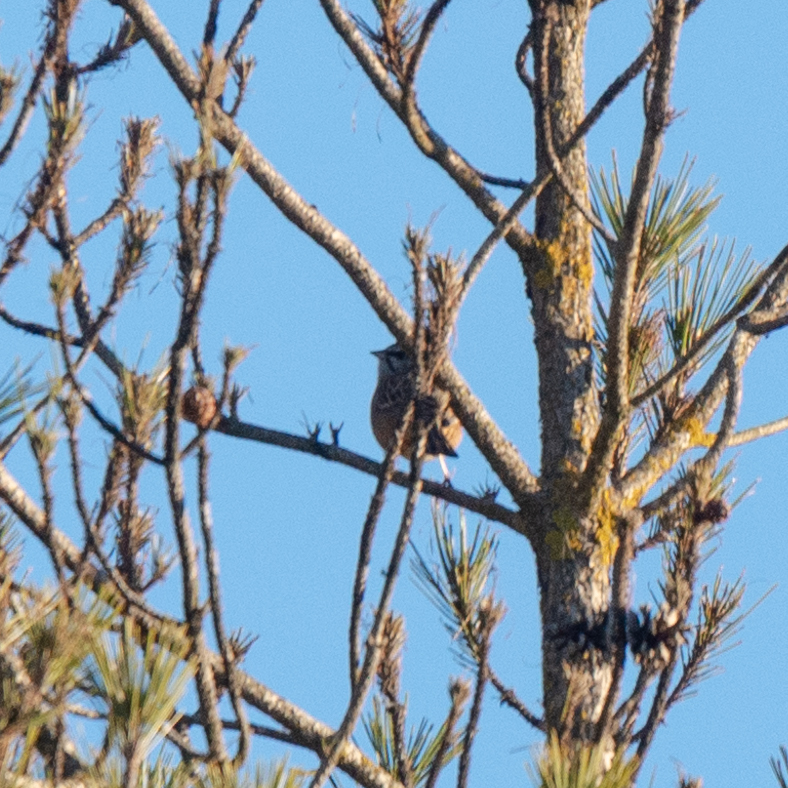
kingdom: Animalia
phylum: Chordata
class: Aves
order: Passeriformes
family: Emberizidae
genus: Emberiza
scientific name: Emberiza cia
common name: Rock bunting
